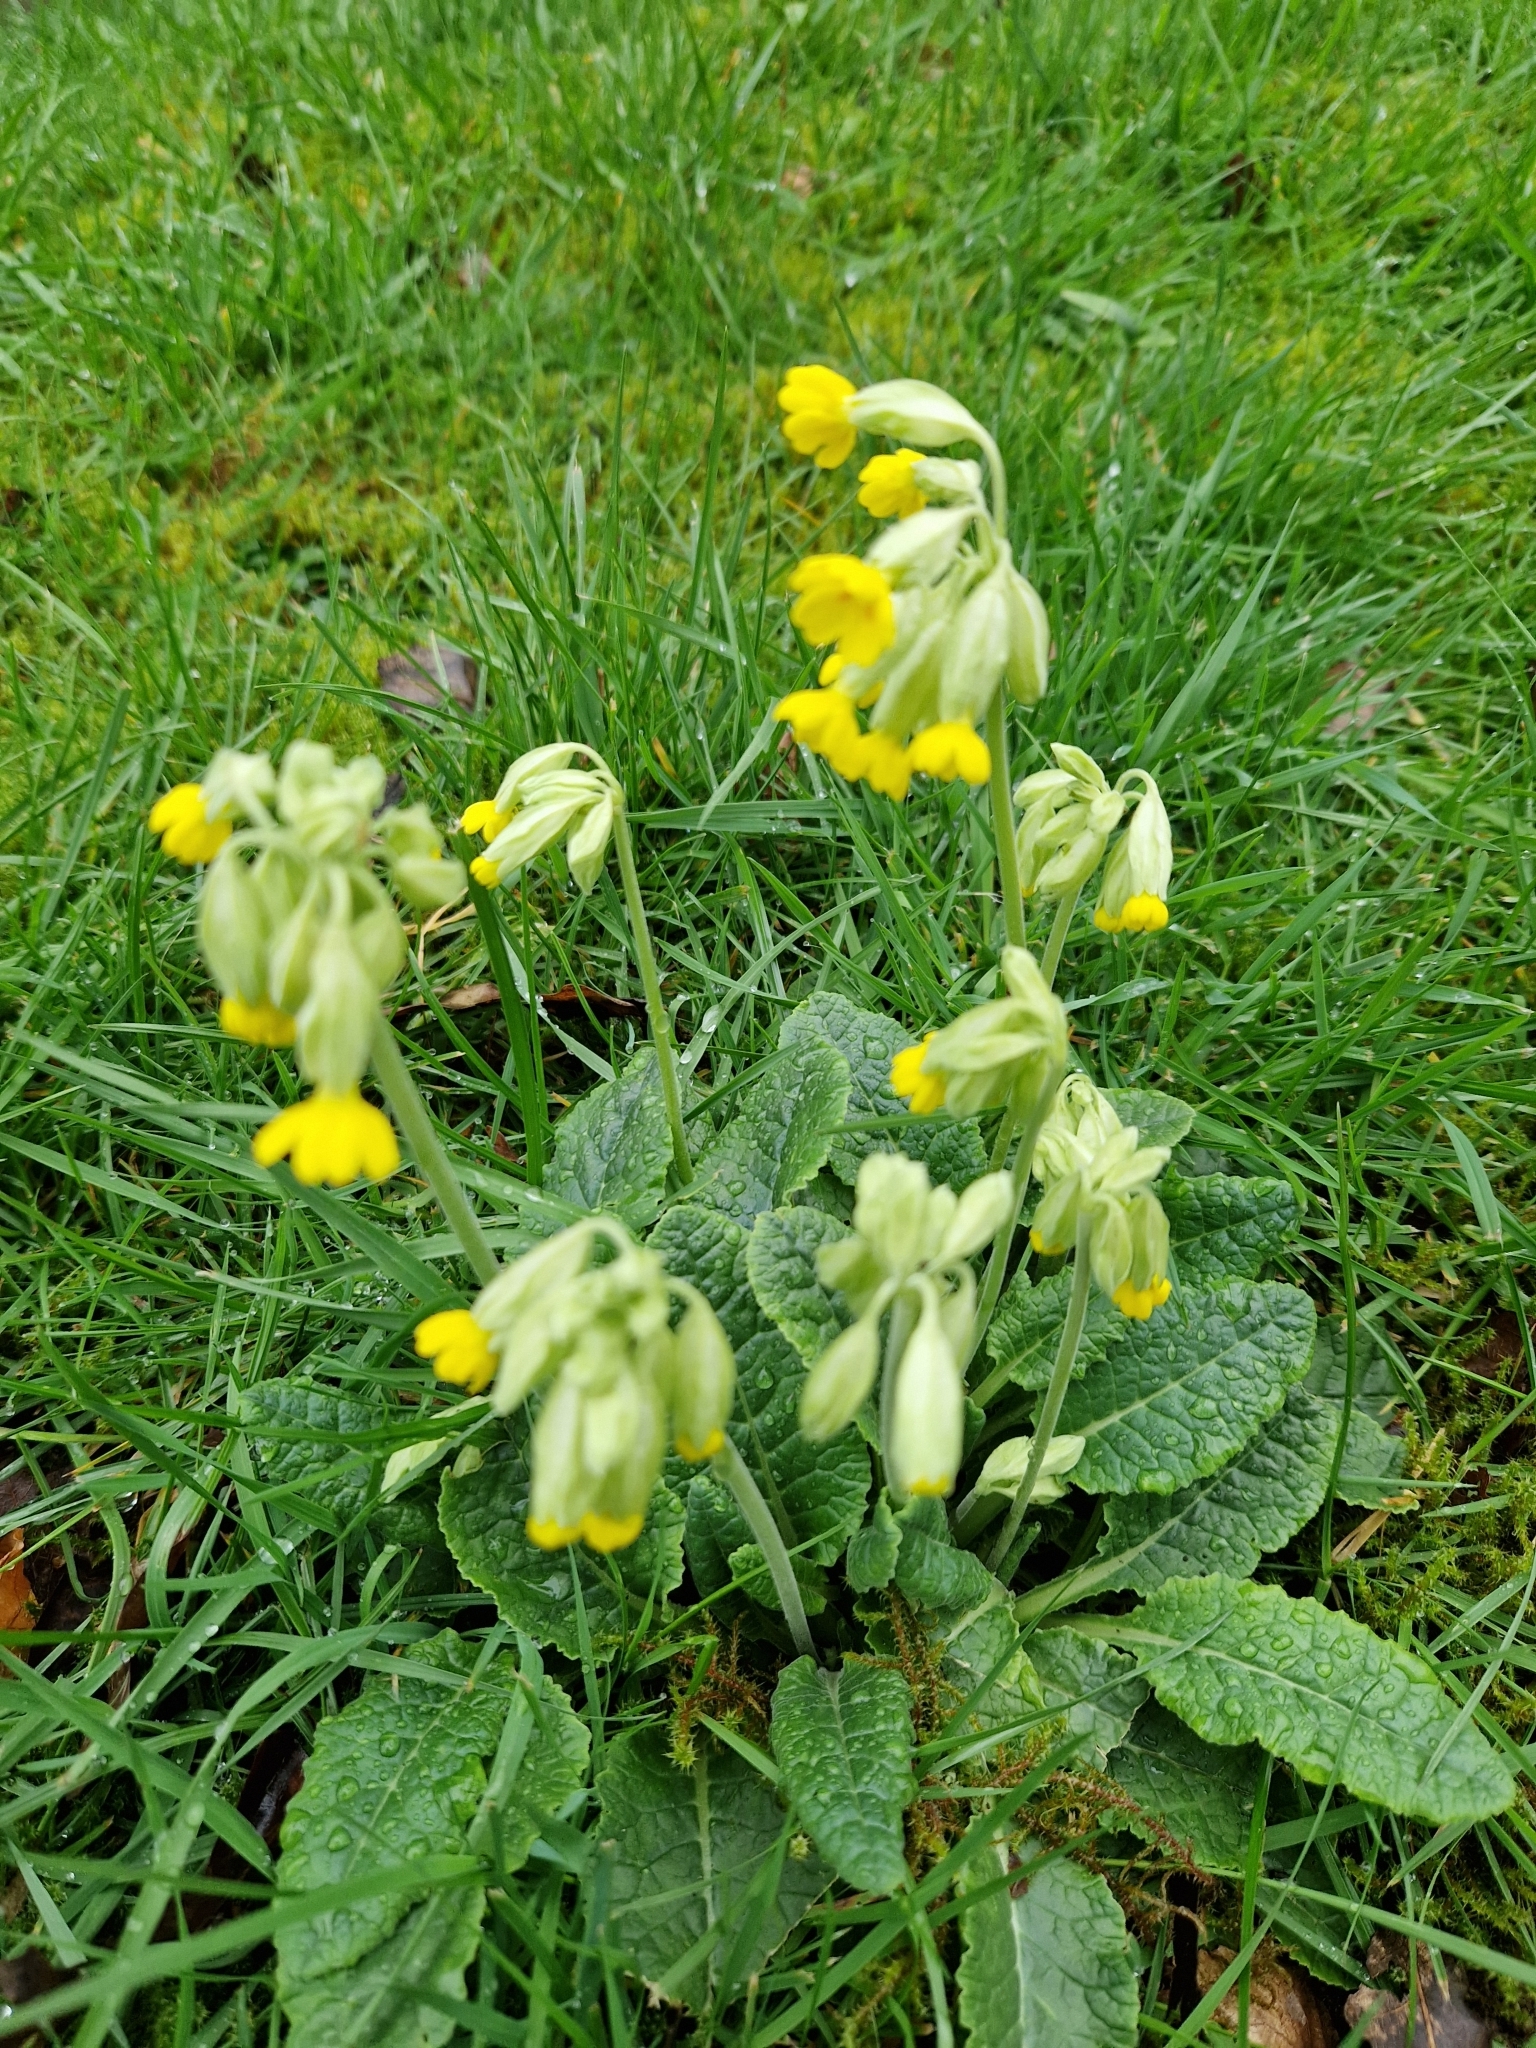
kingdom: Plantae
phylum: Tracheophyta
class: Magnoliopsida
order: Ericales
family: Primulaceae
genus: Primula
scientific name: Primula veris
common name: Cowslip
